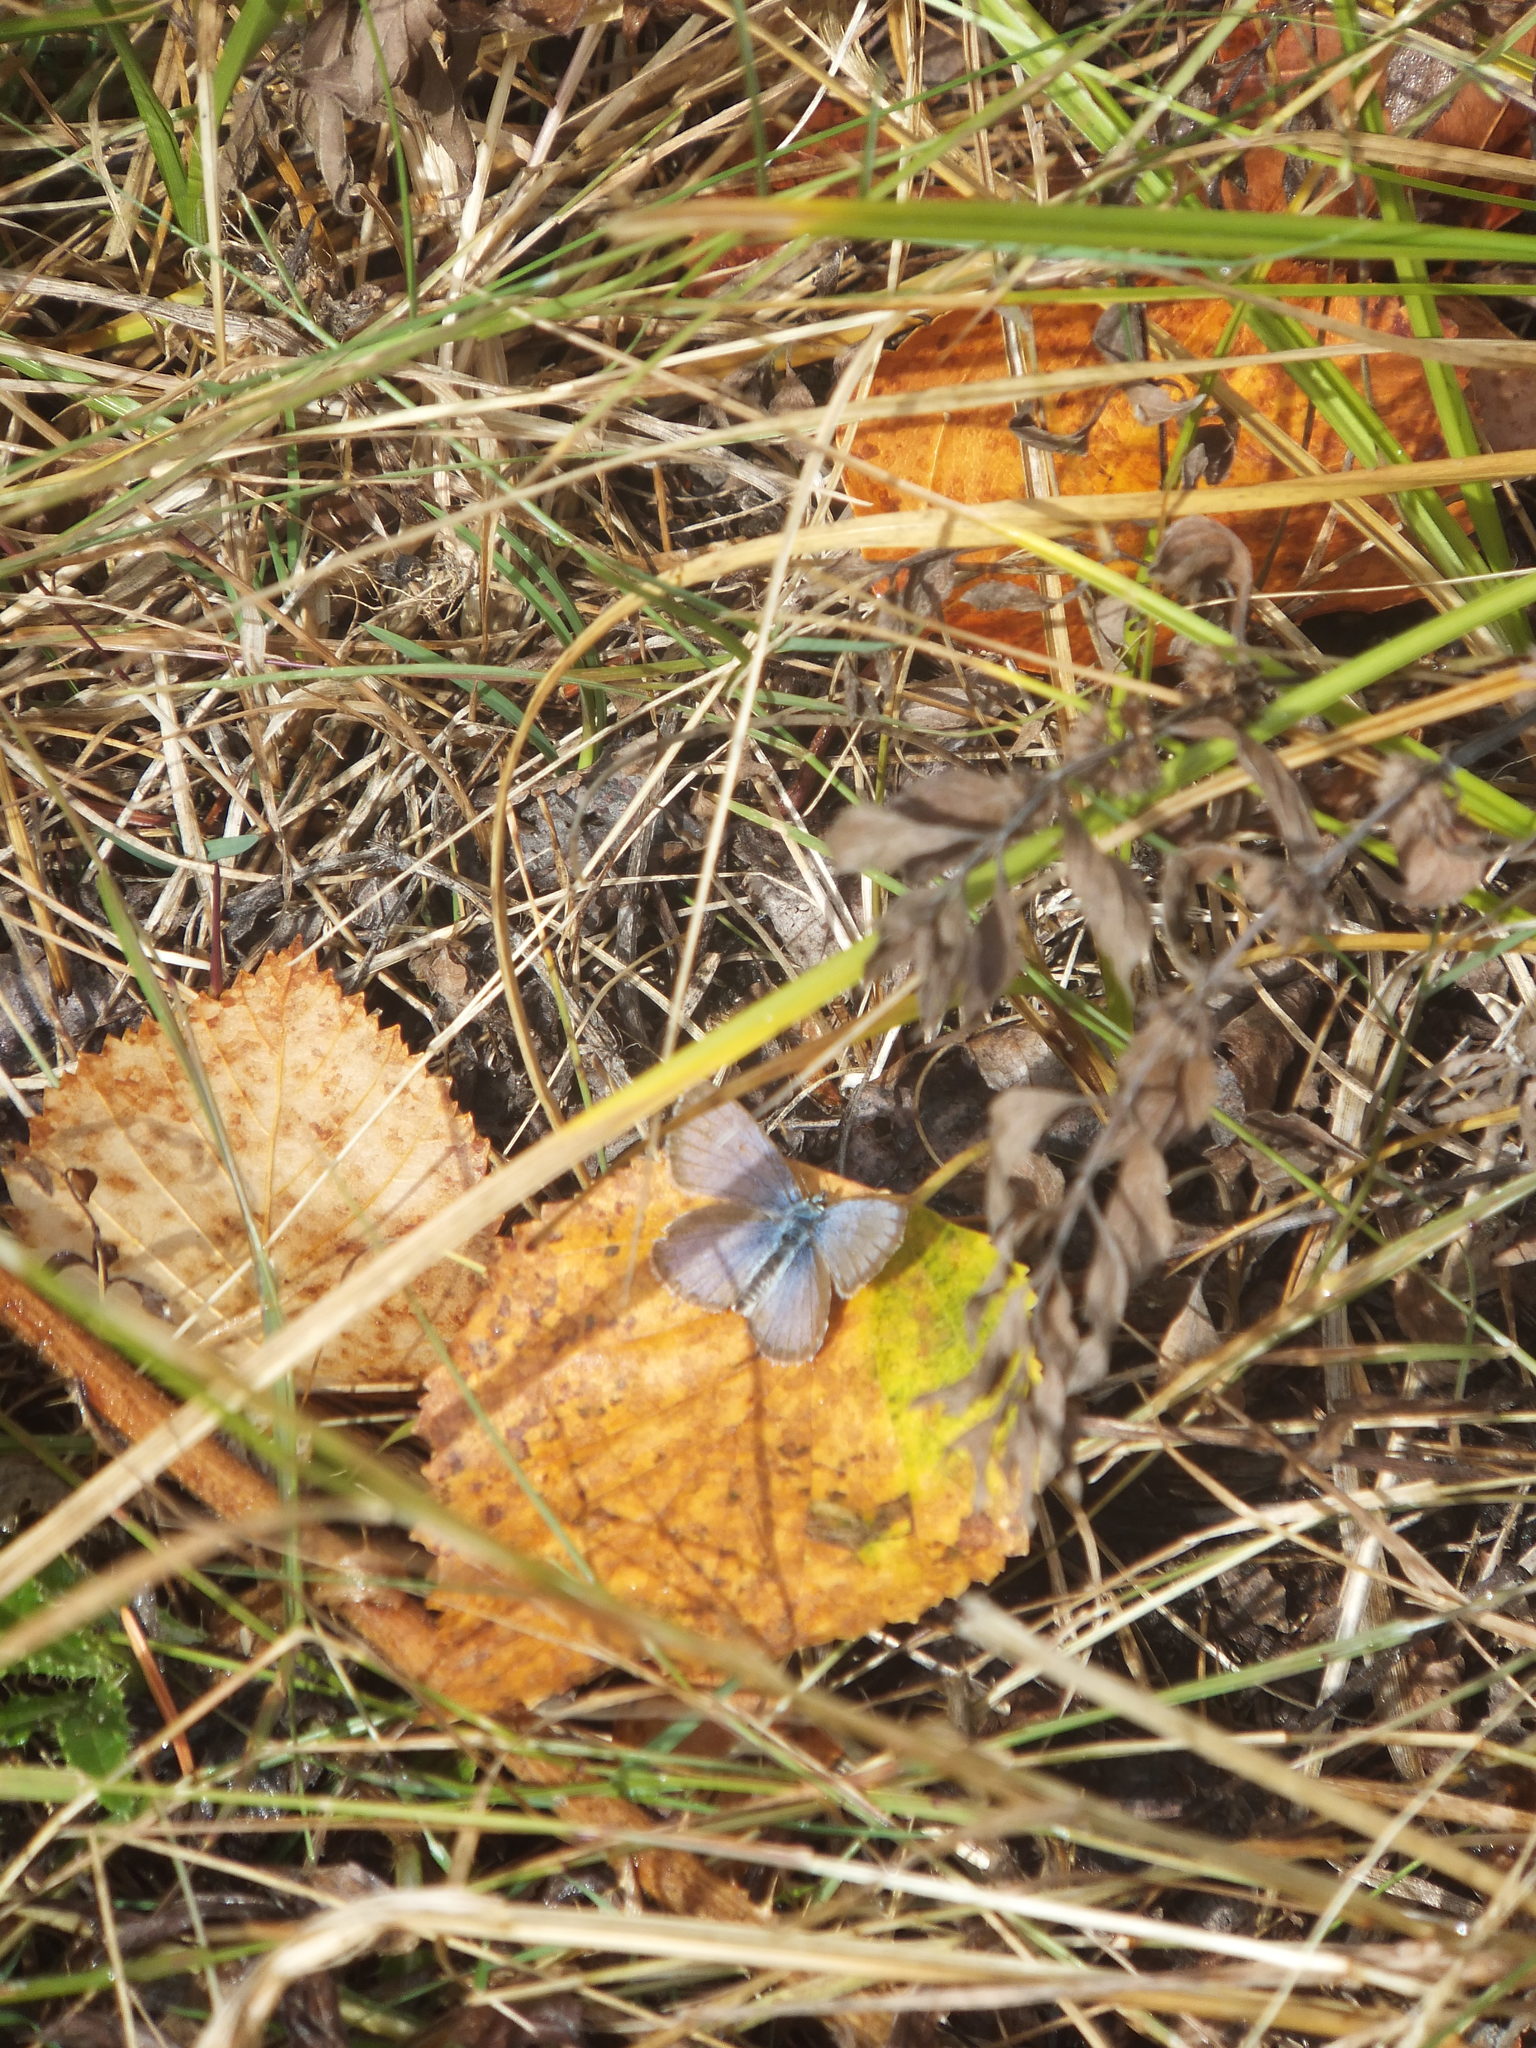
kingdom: Animalia
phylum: Arthropoda
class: Insecta
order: Lepidoptera
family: Lycaenidae
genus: Lycaeides
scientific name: Lycaeides anna
